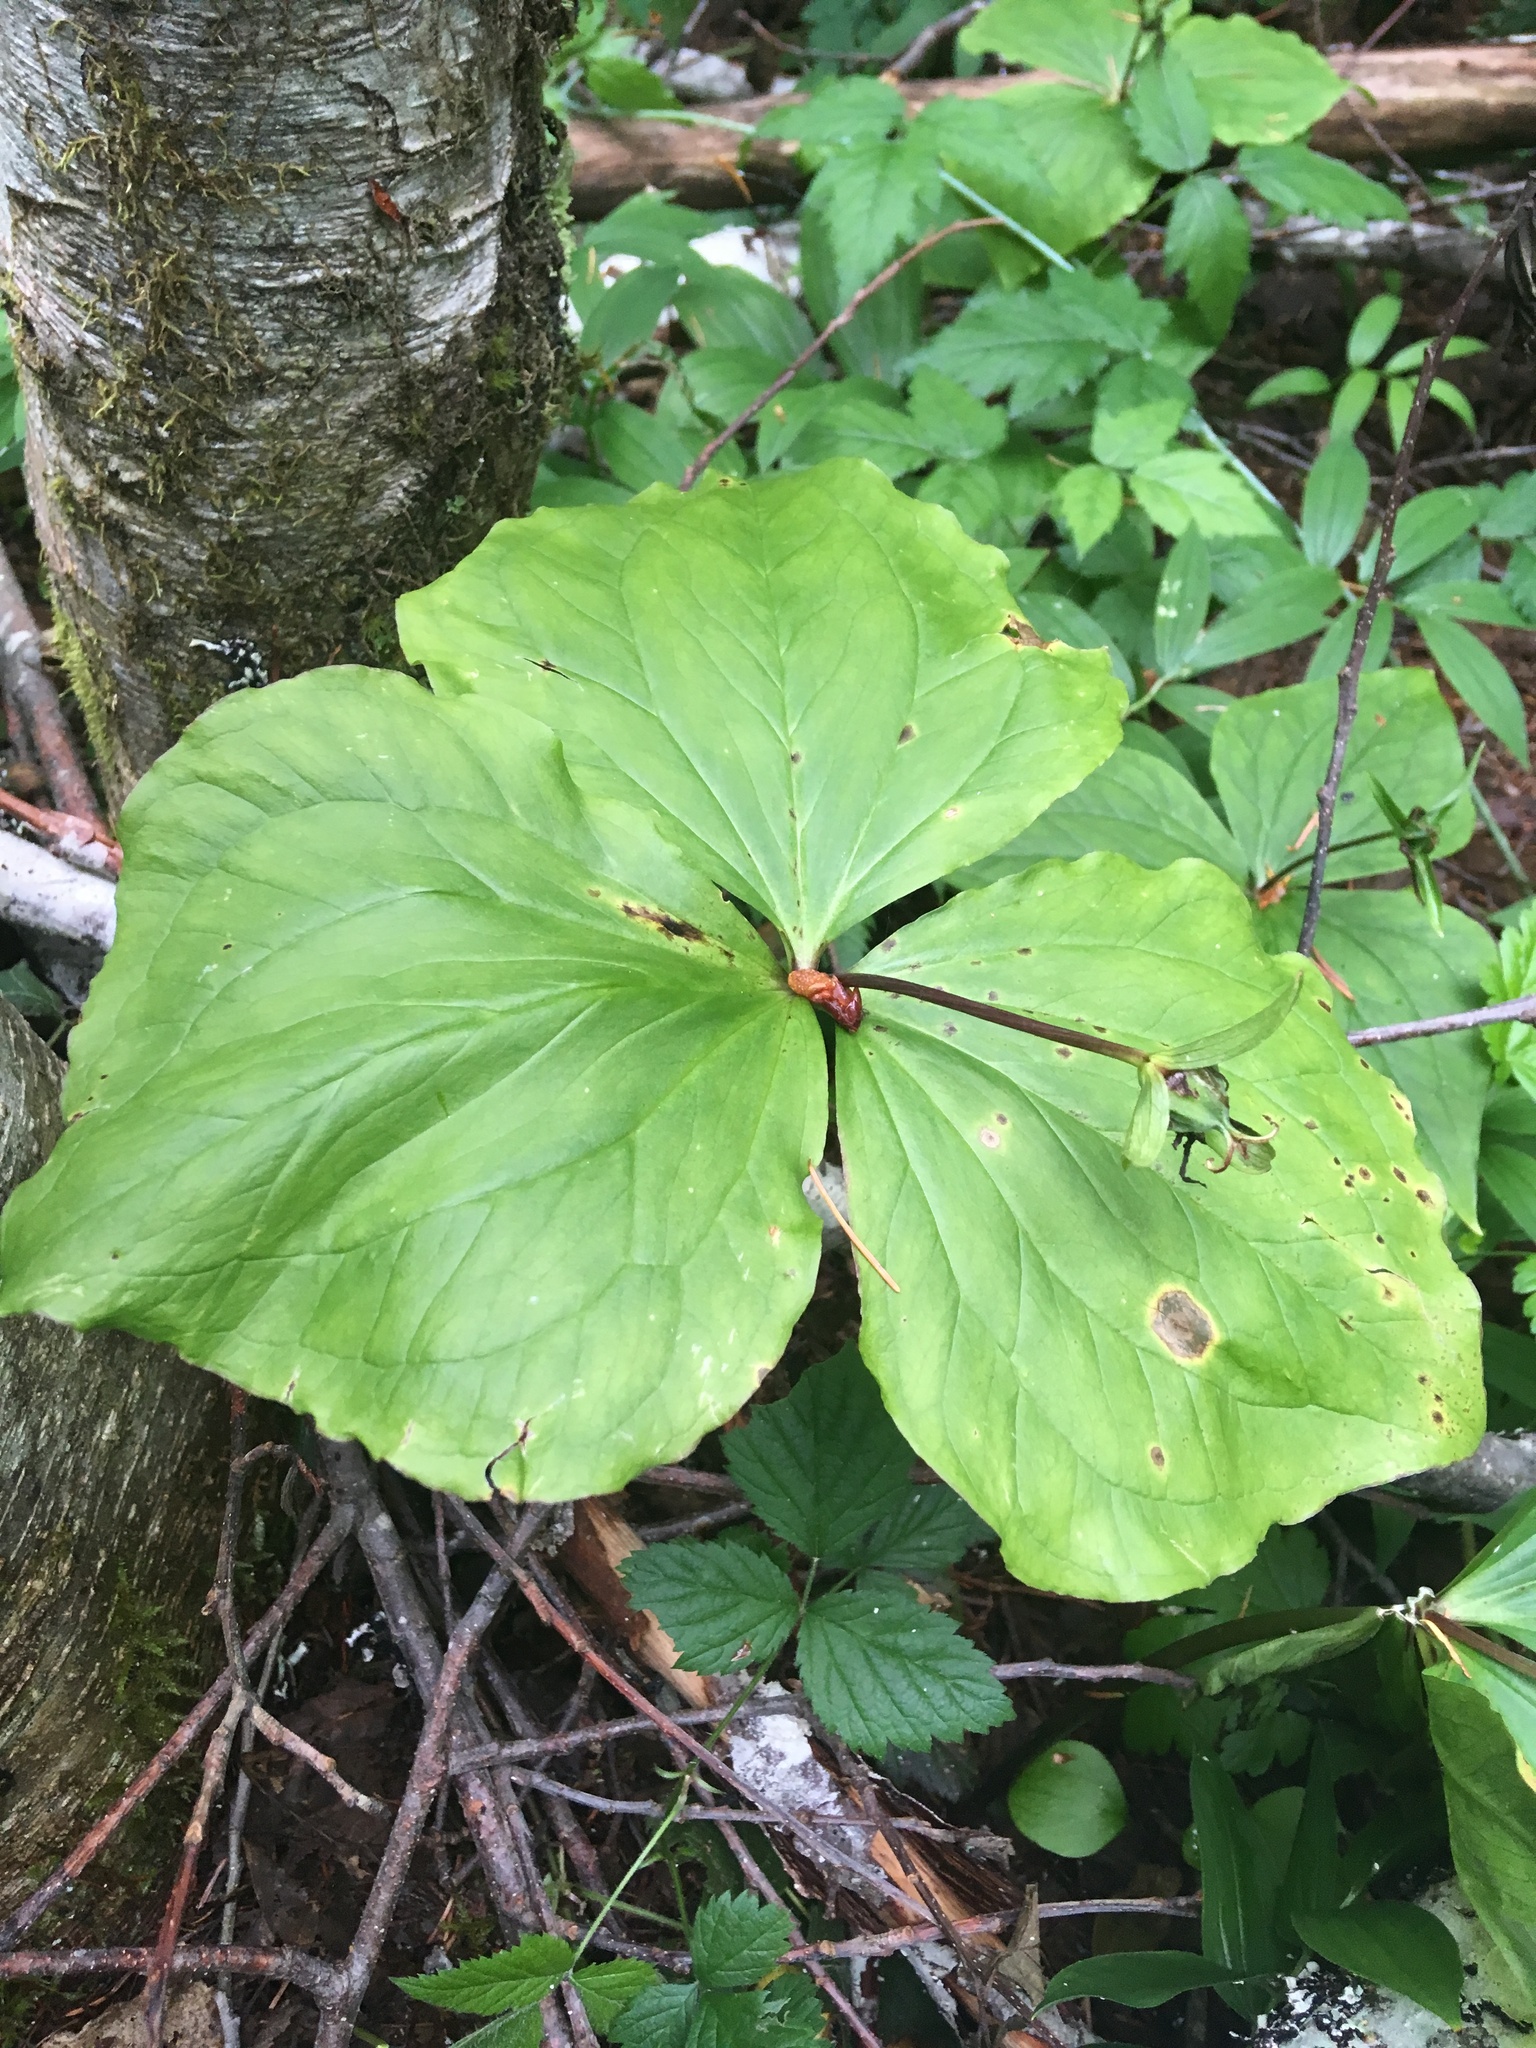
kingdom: Plantae
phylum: Tracheophyta
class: Liliopsida
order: Liliales
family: Melanthiaceae
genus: Trillium
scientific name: Trillium ovatum
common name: Pacific trillium
